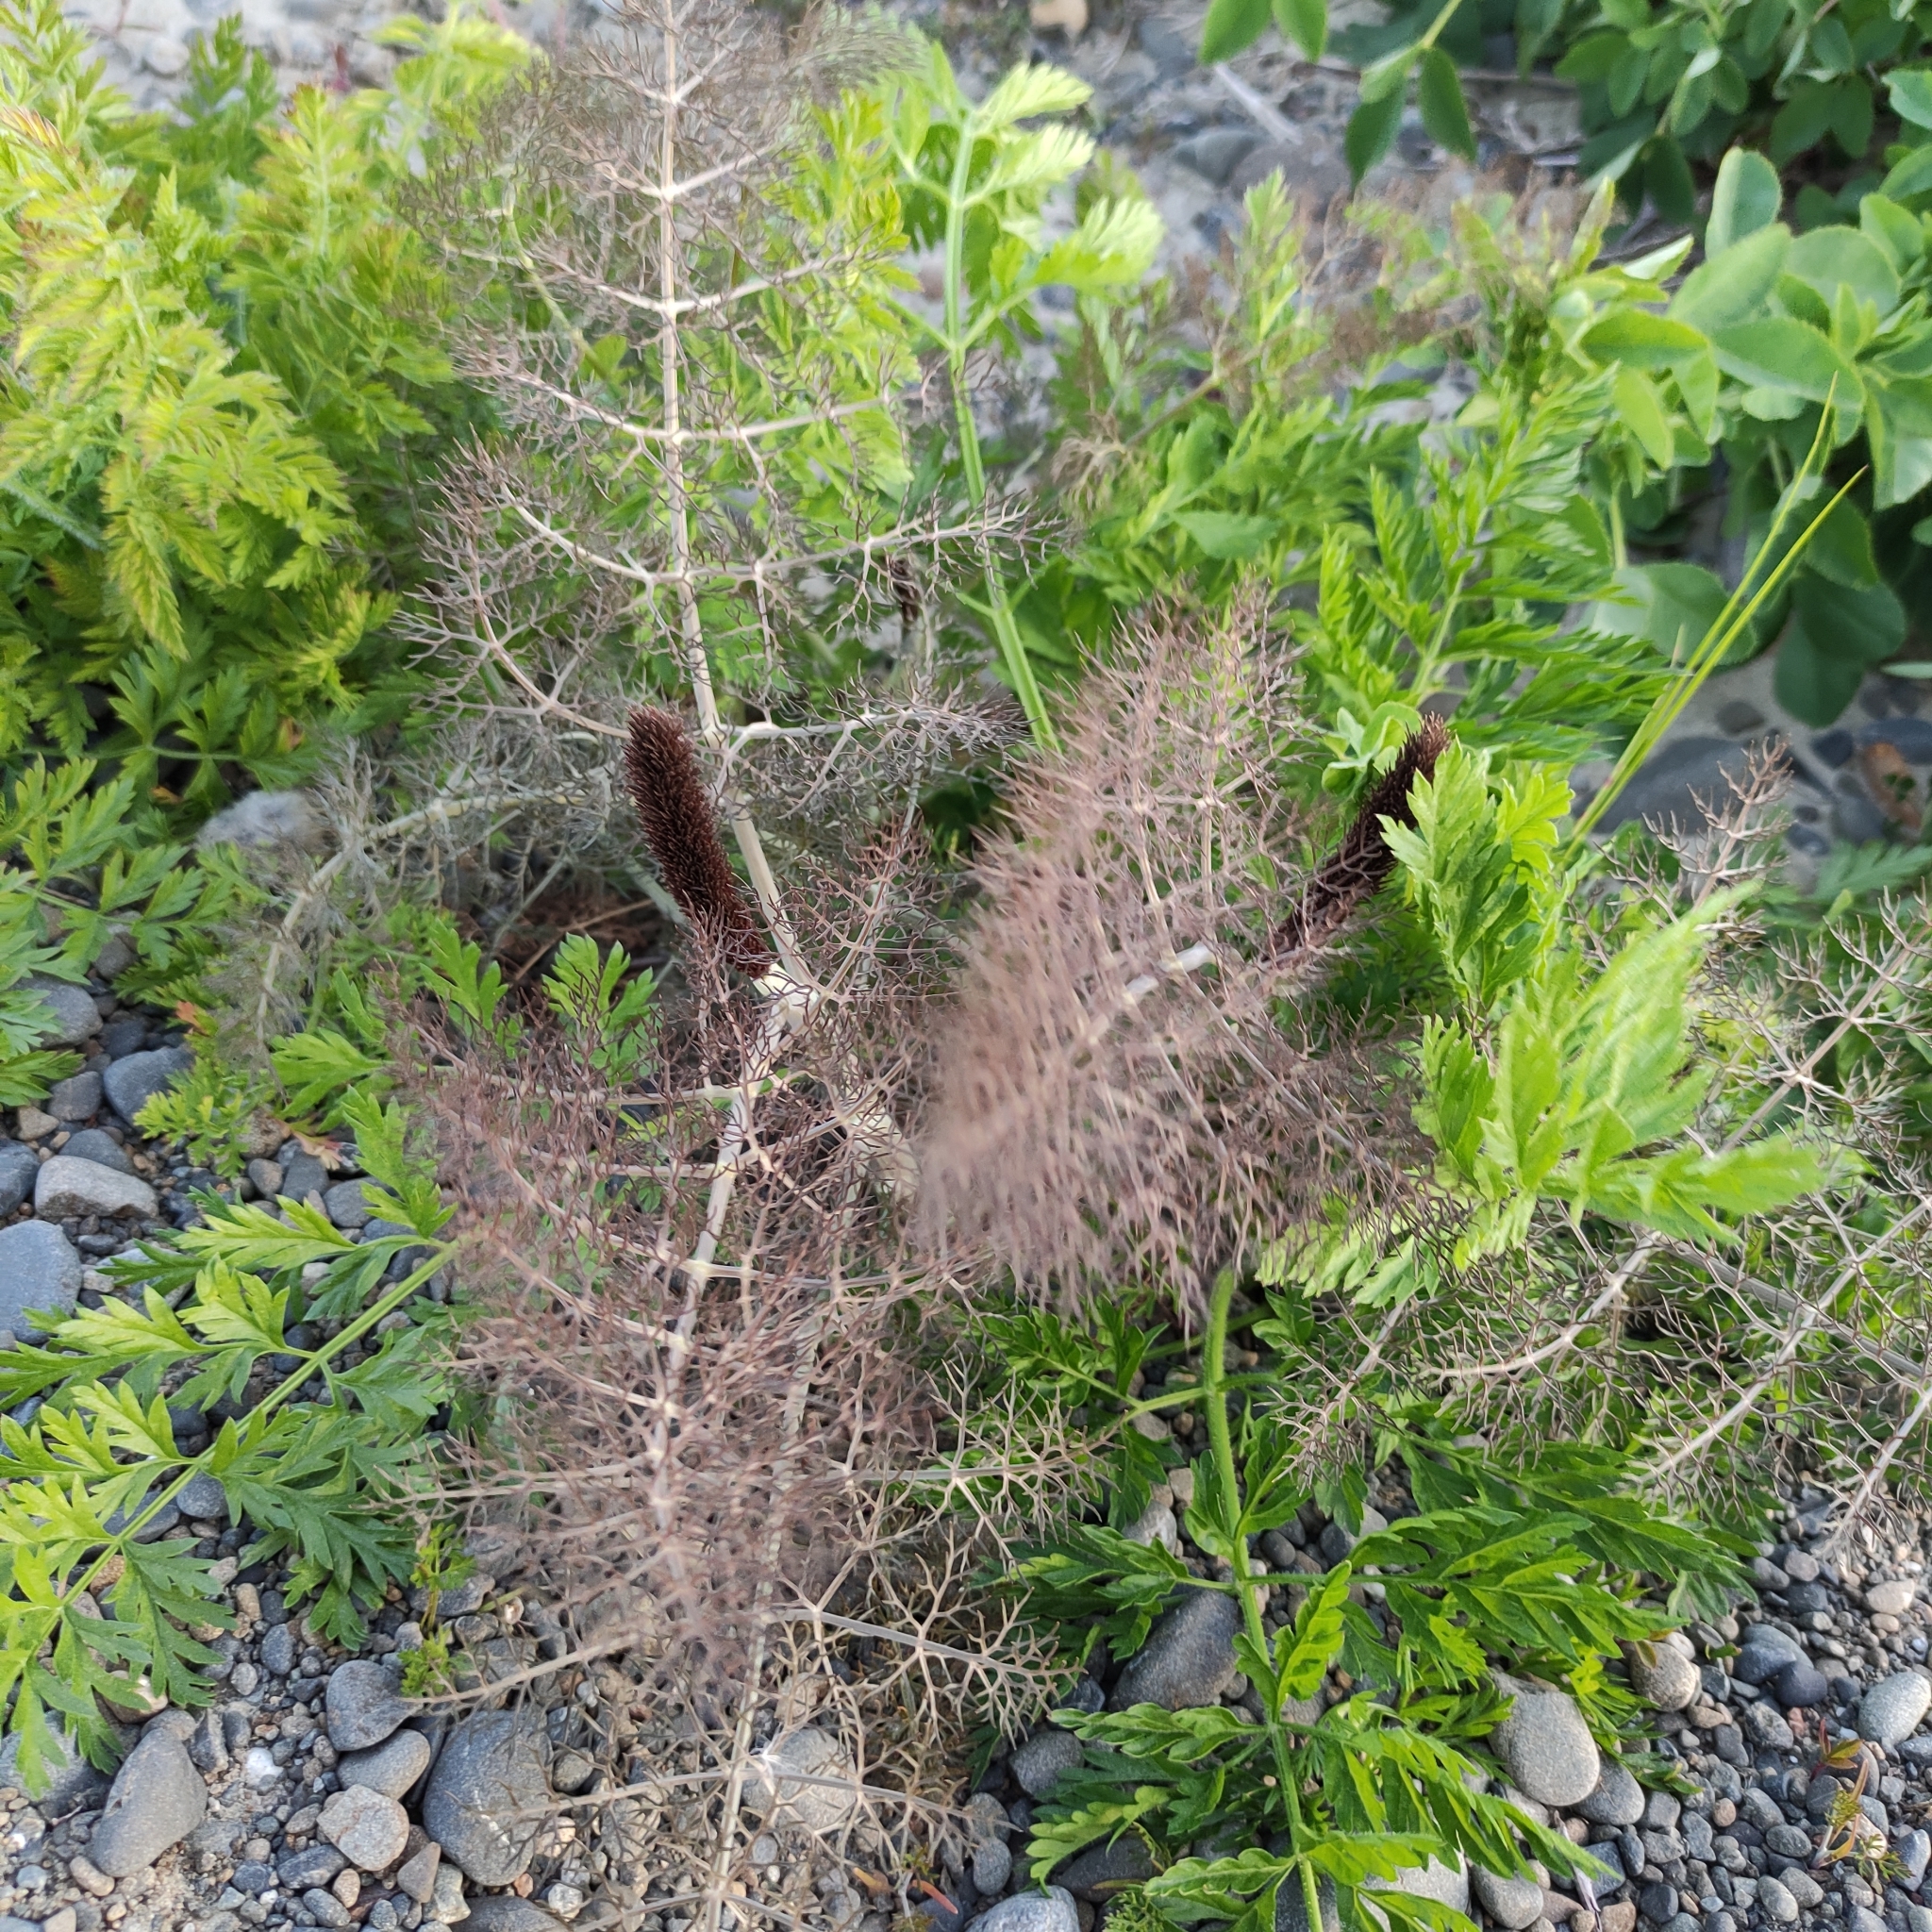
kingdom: Plantae
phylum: Tracheophyta
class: Magnoliopsida
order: Apiales
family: Apiaceae
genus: Foeniculum
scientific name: Foeniculum vulgare
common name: Fennel
